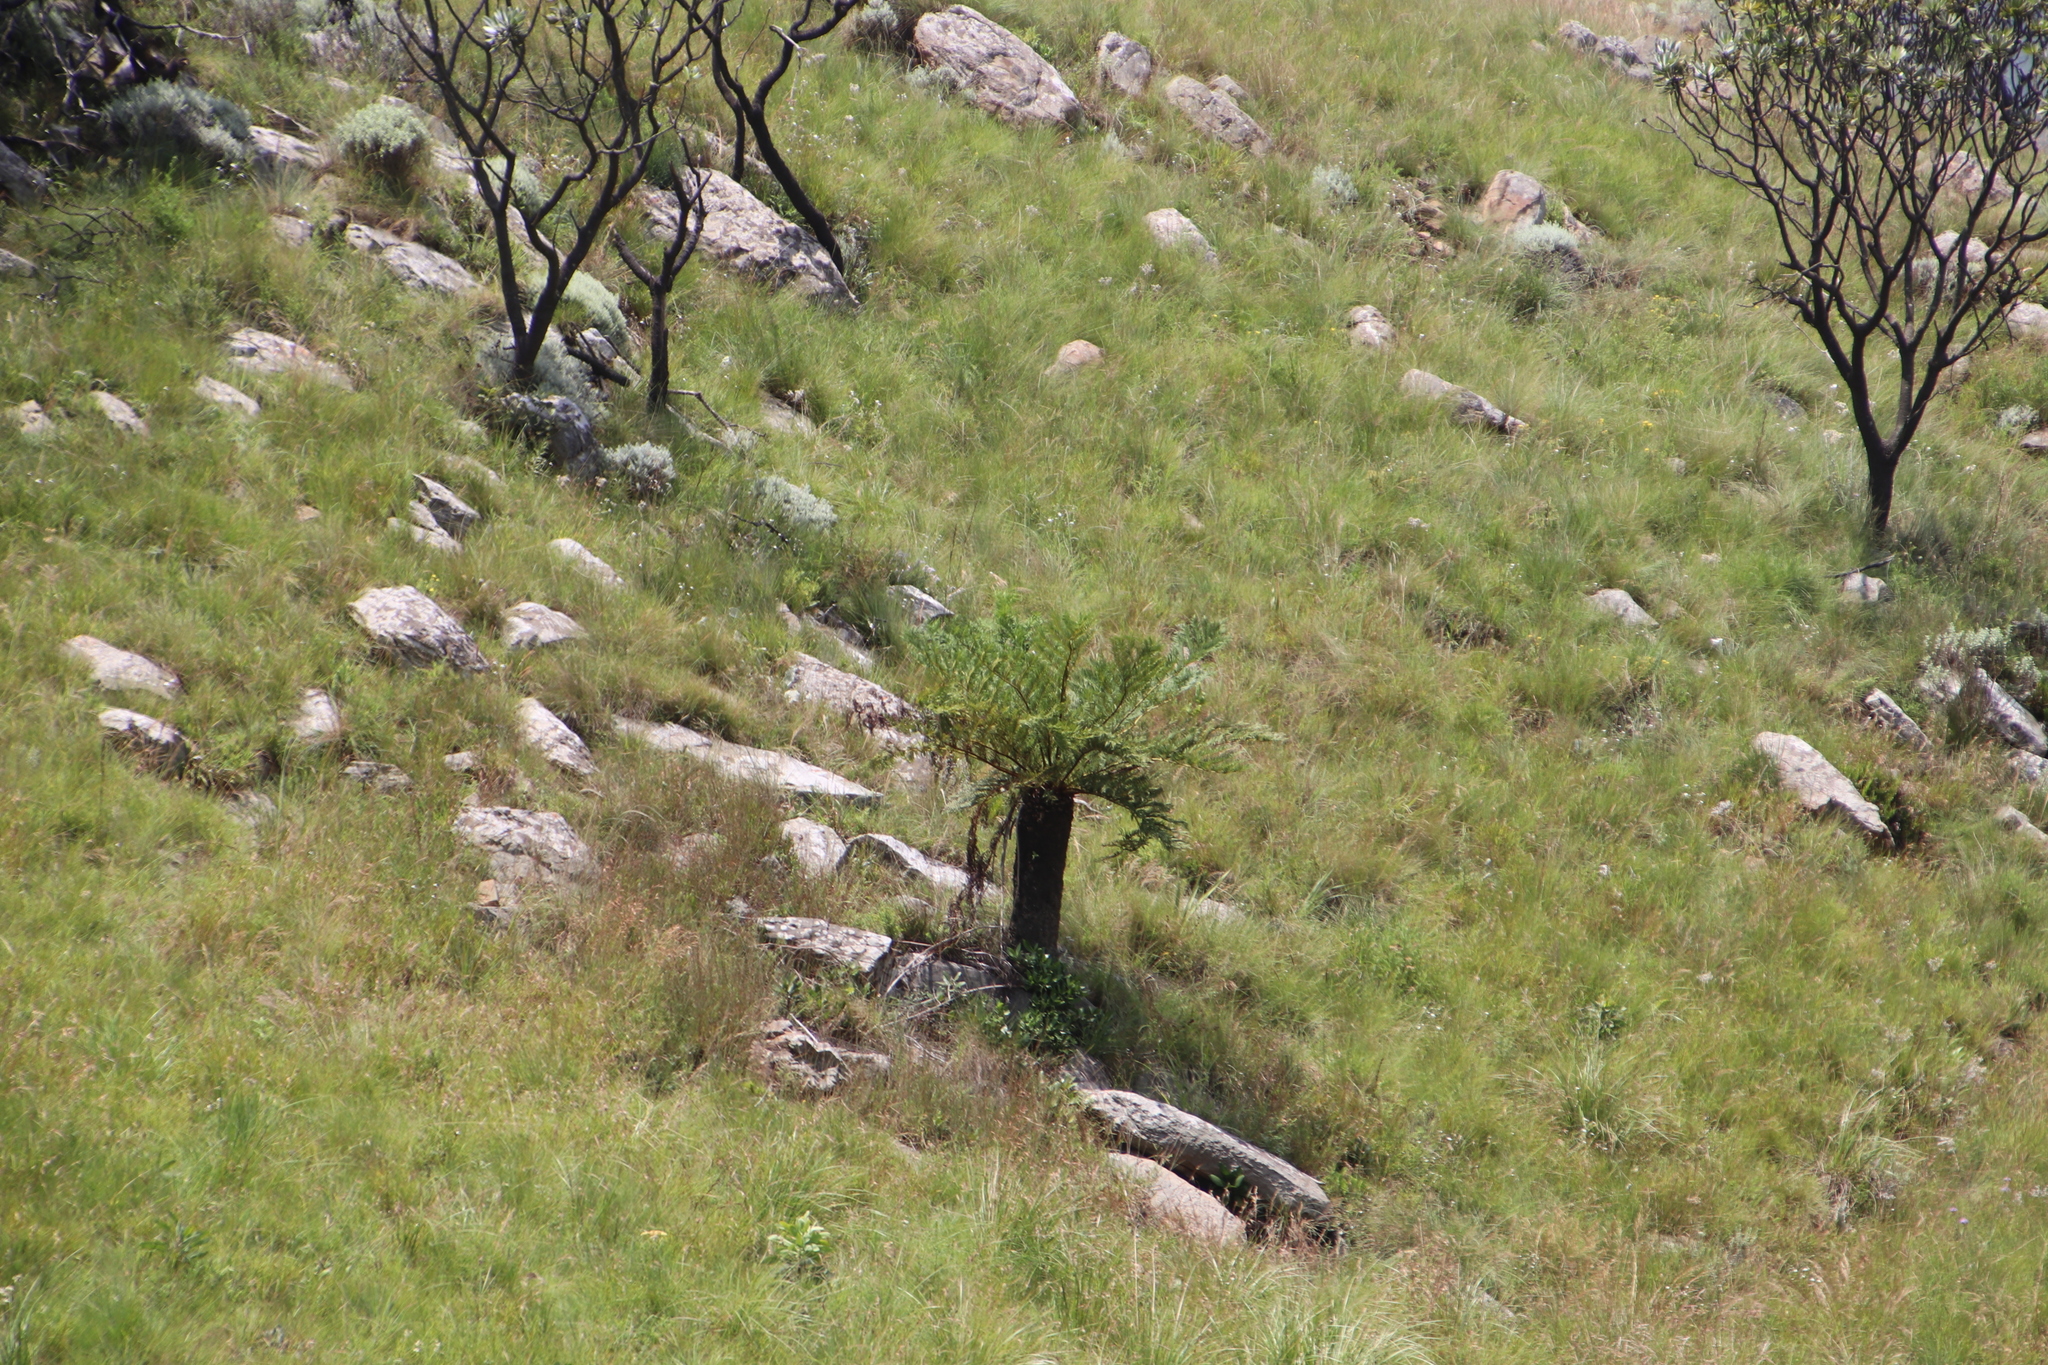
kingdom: Plantae
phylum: Tracheophyta
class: Polypodiopsida
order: Cyatheales
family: Cyatheaceae
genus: Alsophila
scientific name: Alsophila dregei
